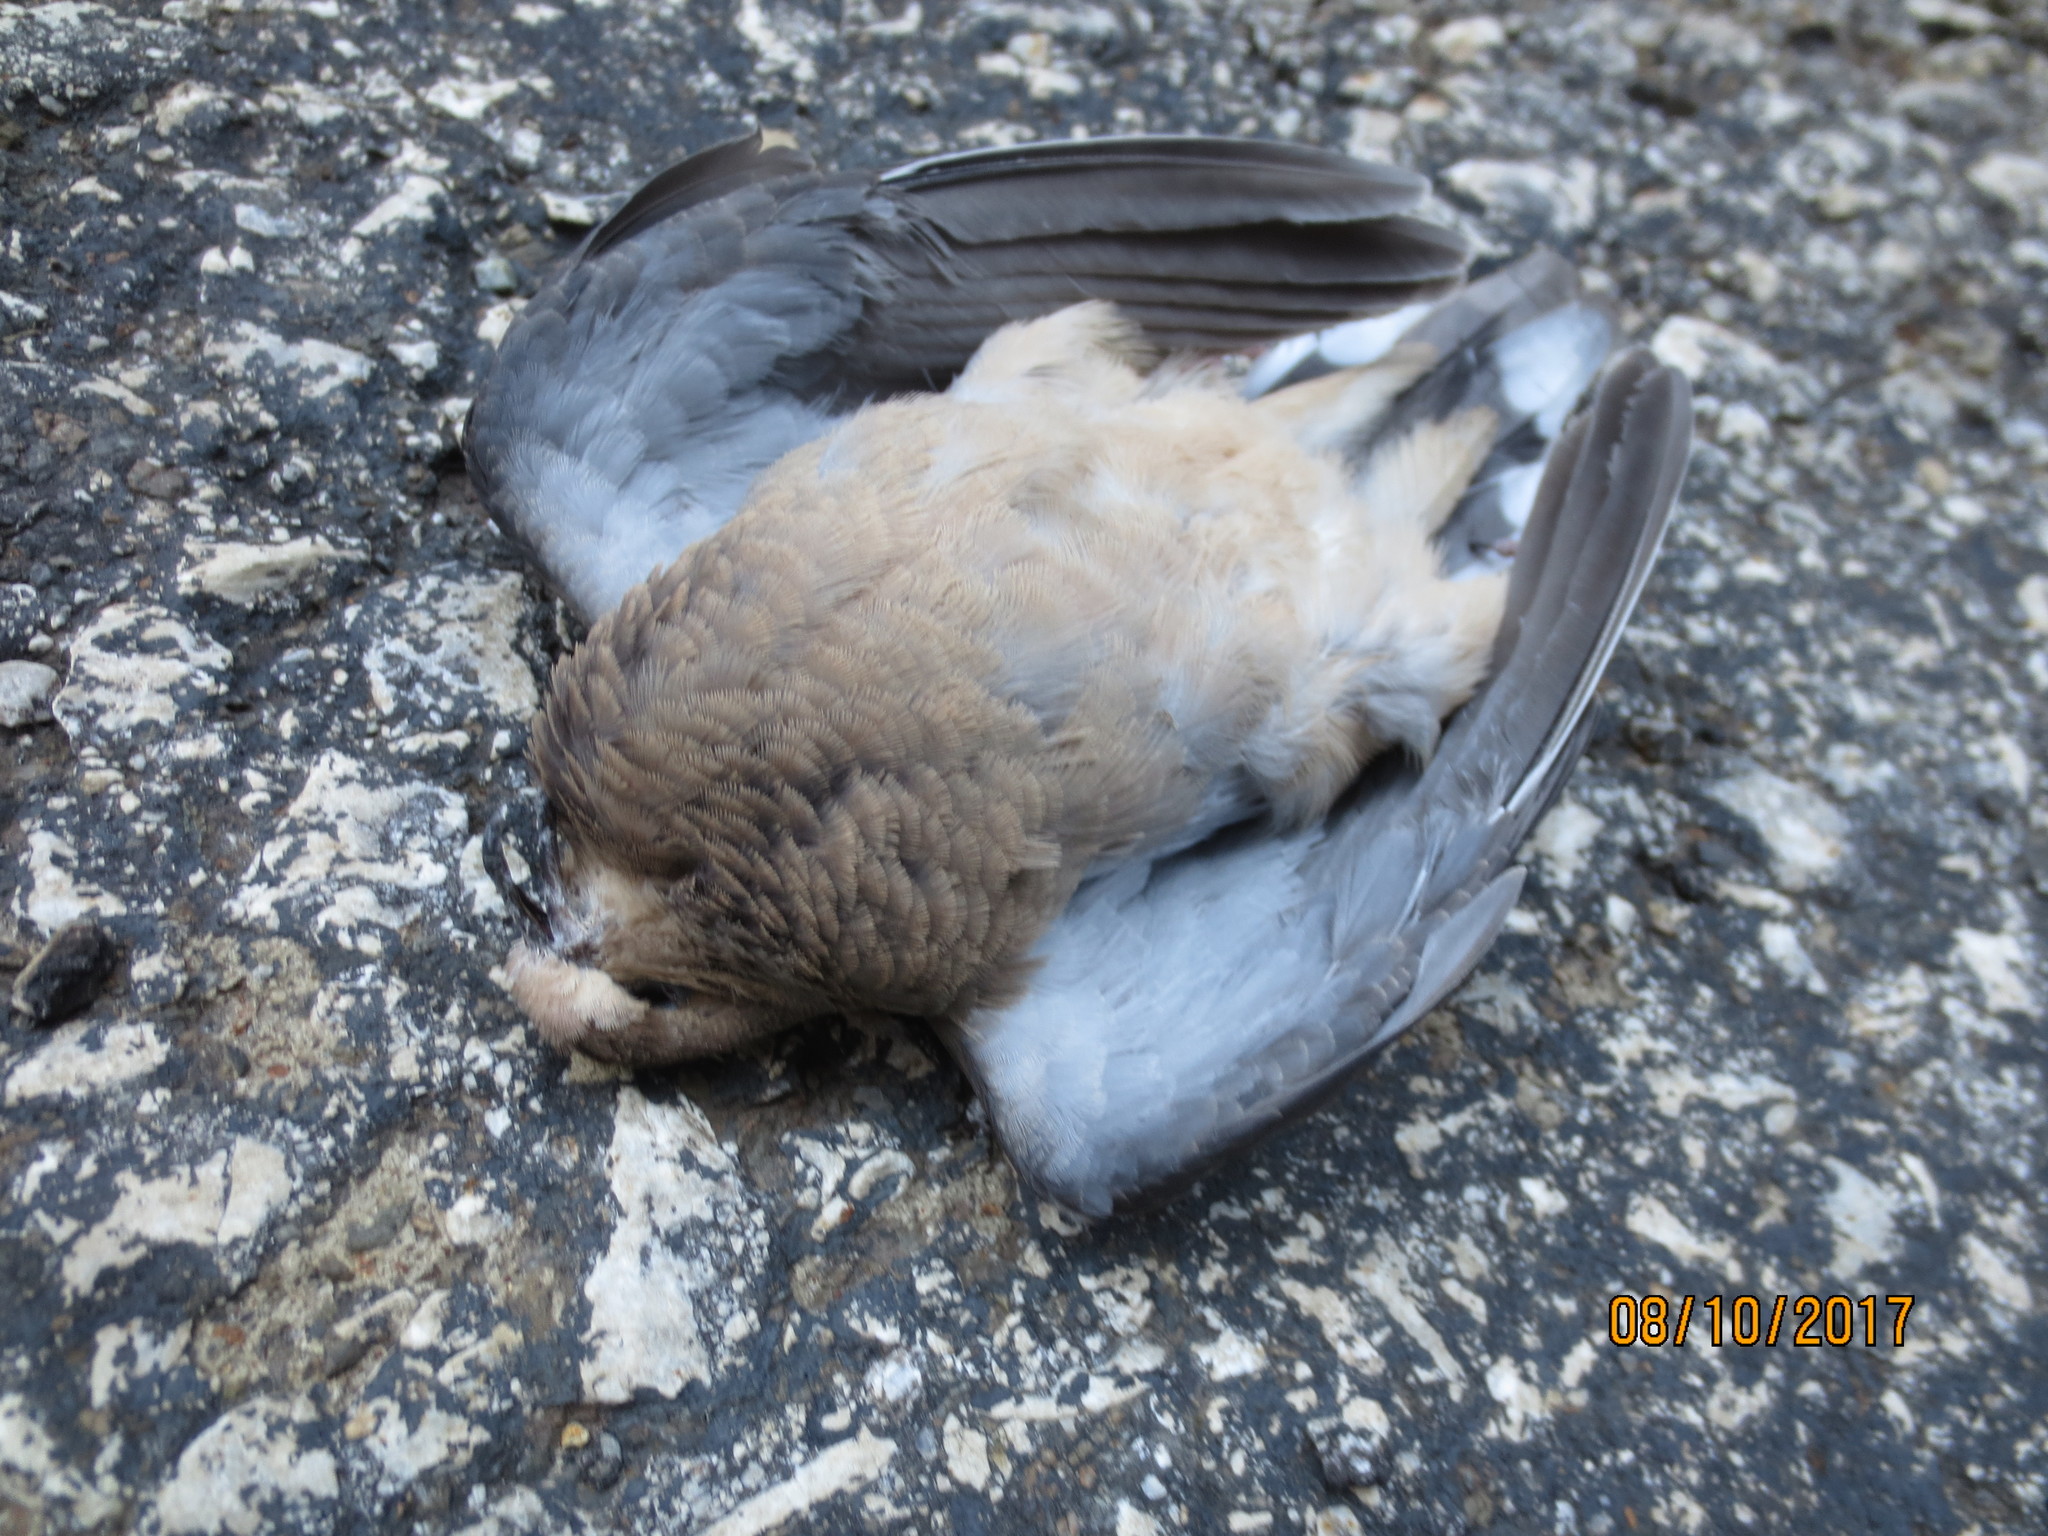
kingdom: Animalia
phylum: Chordata
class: Aves
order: Columbiformes
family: Columbidae
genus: Zenaida
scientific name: Zenaida macroura
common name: Mourning dove
